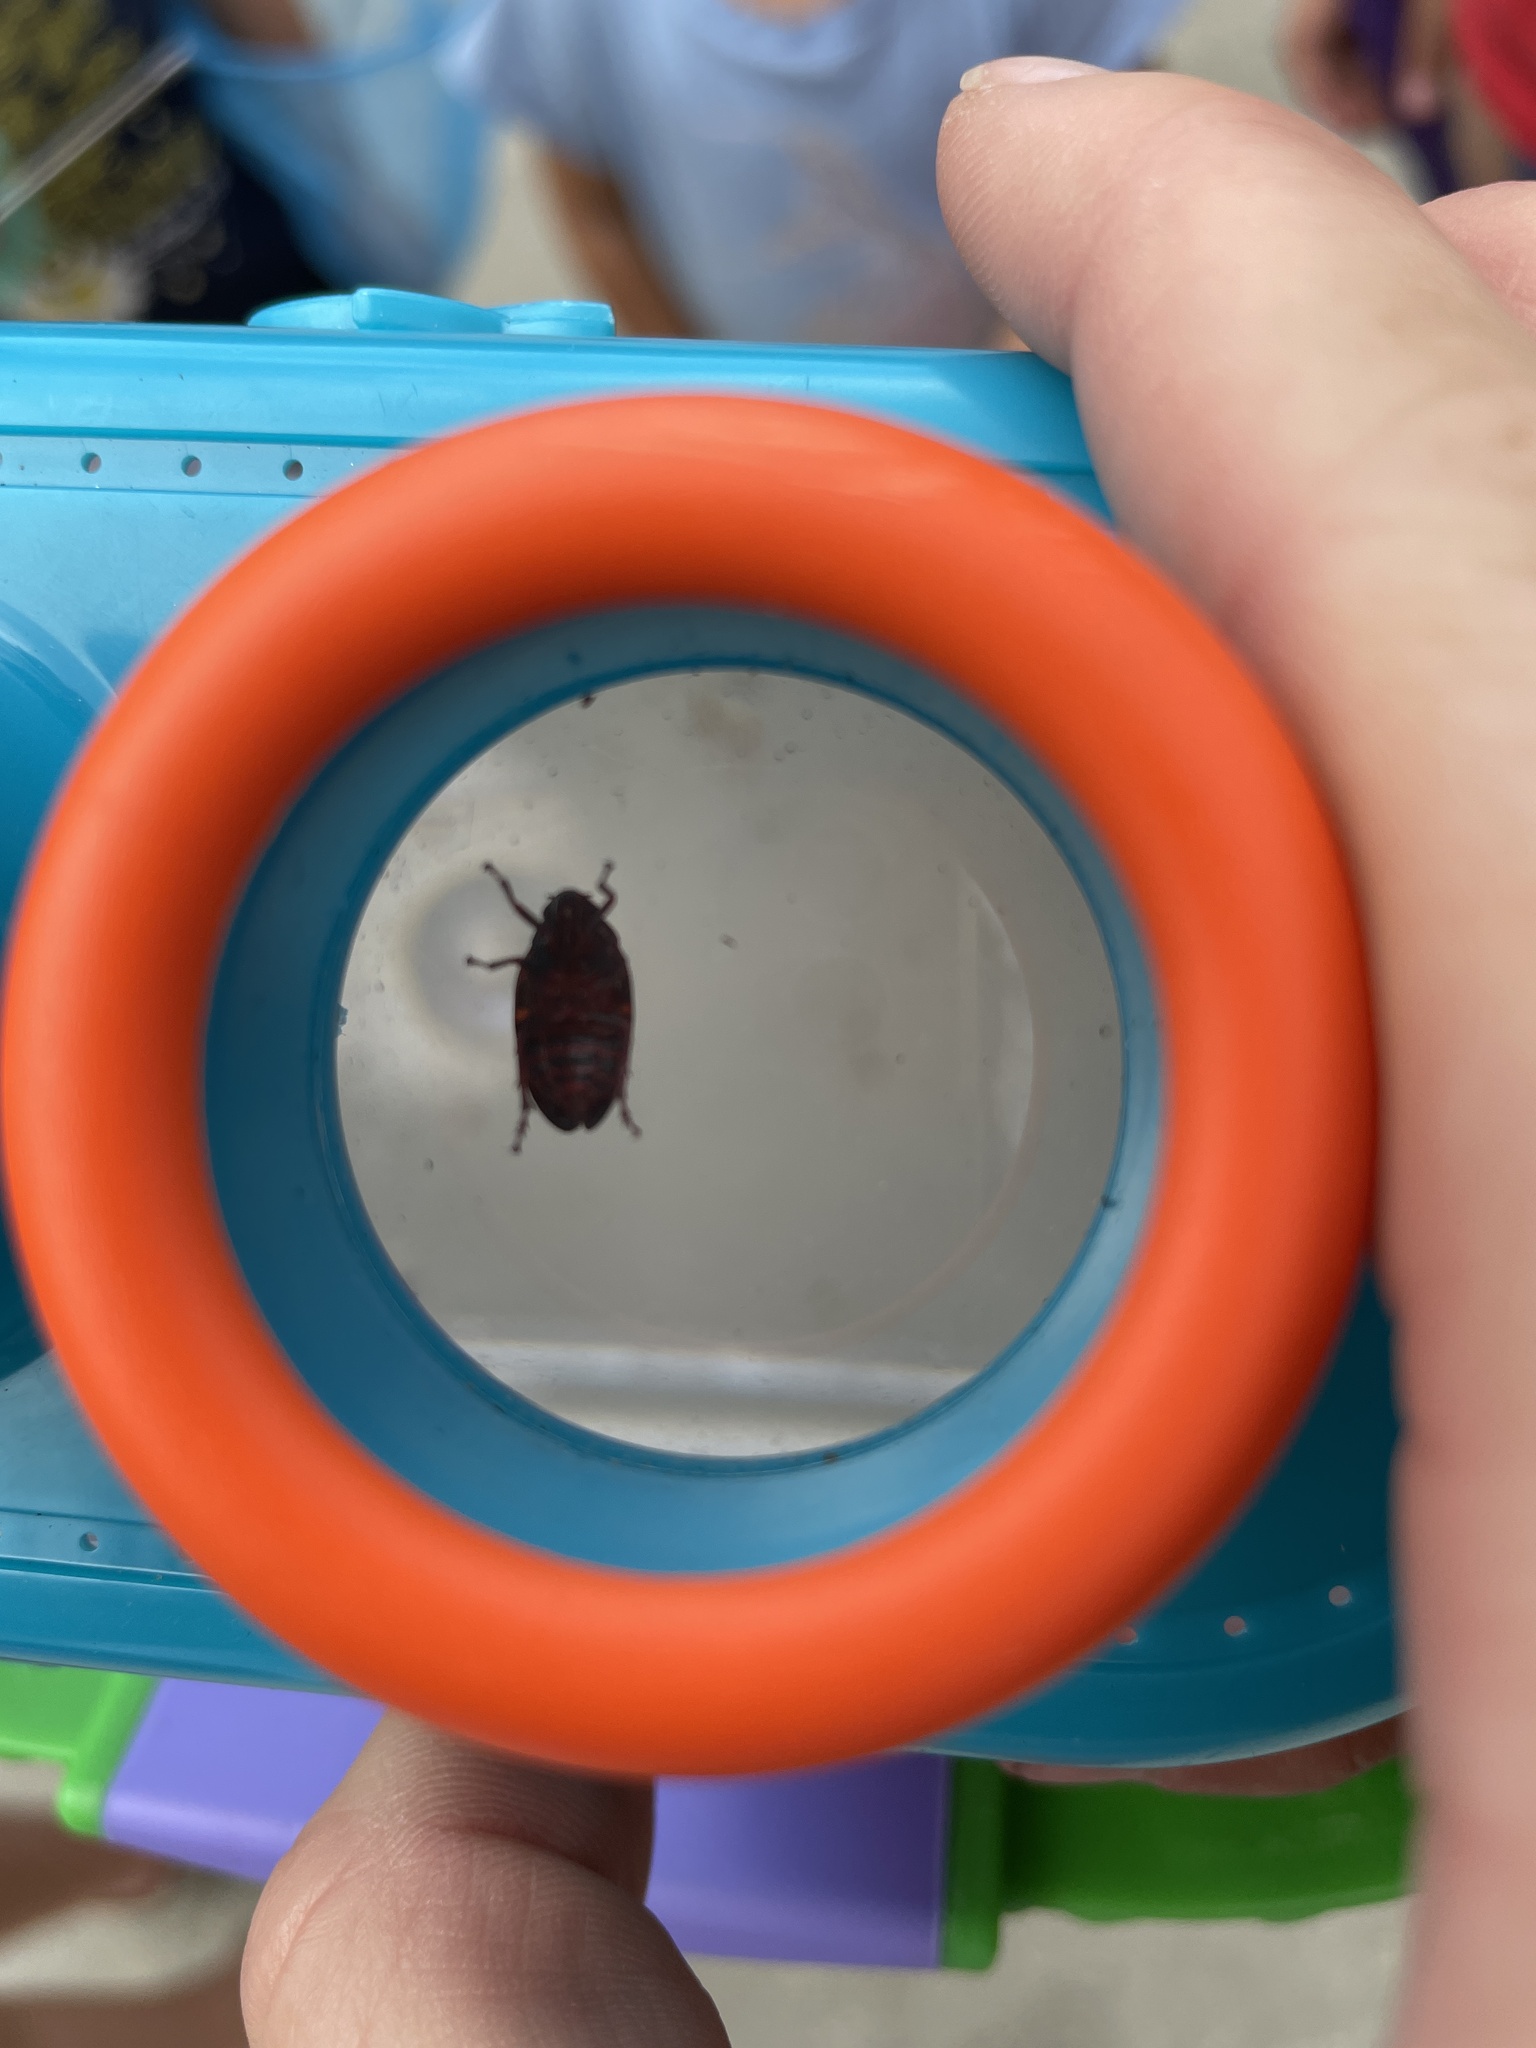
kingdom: Animalia
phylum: Arthropoda
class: Insecta
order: Hemiptera
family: Cercopidae
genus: Prosapia
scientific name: Prosapia bicincta
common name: Twolined spittlebug
